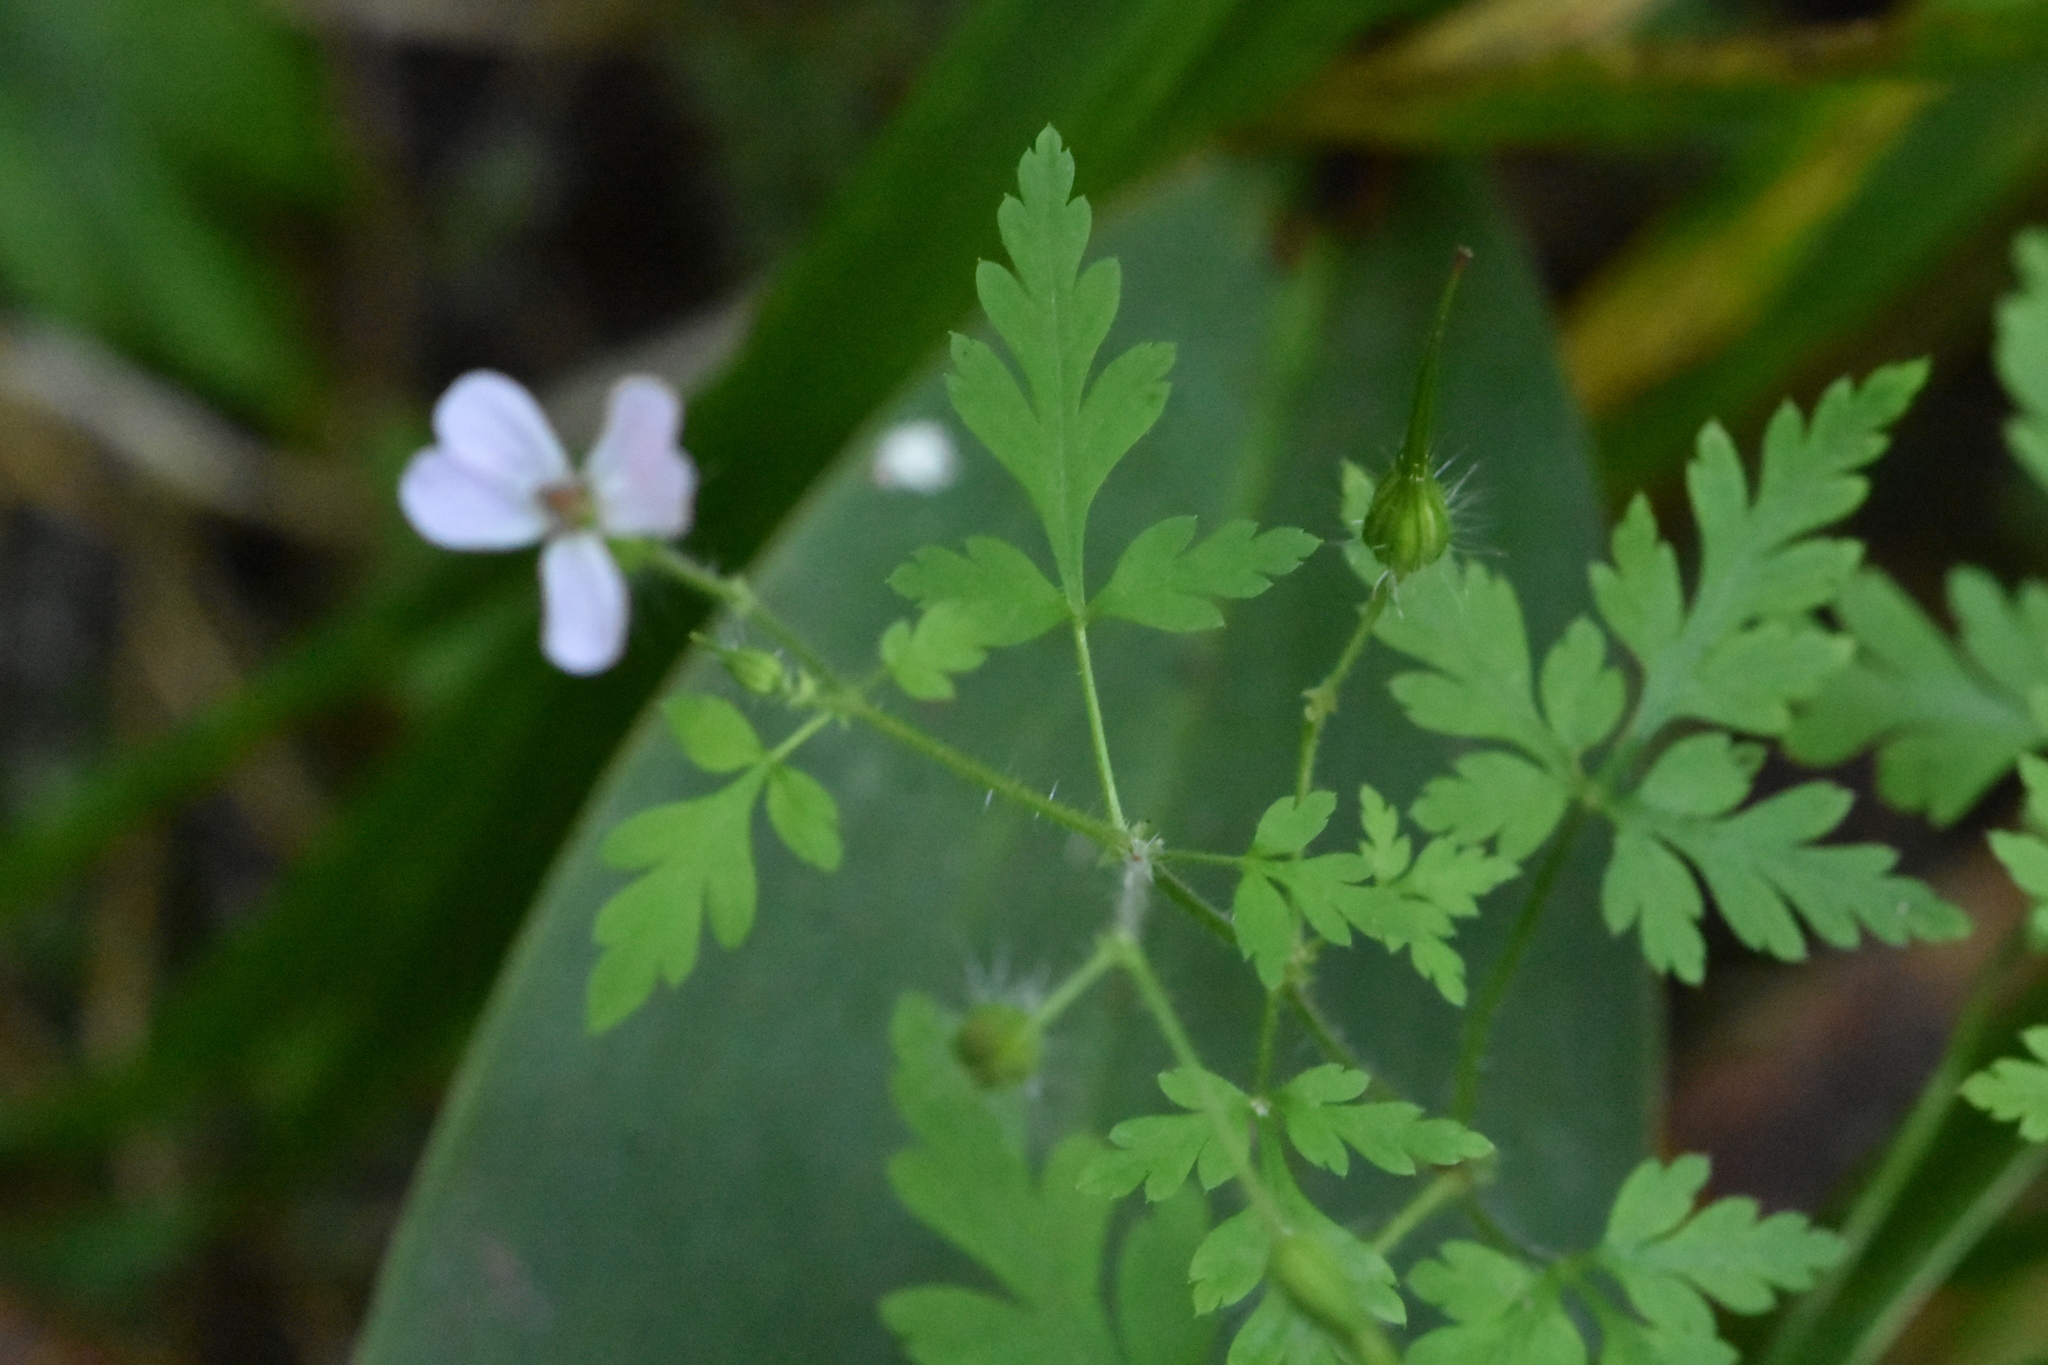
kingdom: Plantae
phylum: Tracheophyta
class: Magnoliopsida
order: Geraniales
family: Geraniaceae
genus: Geranium
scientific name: Geranium robertianum
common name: Herb-robert
